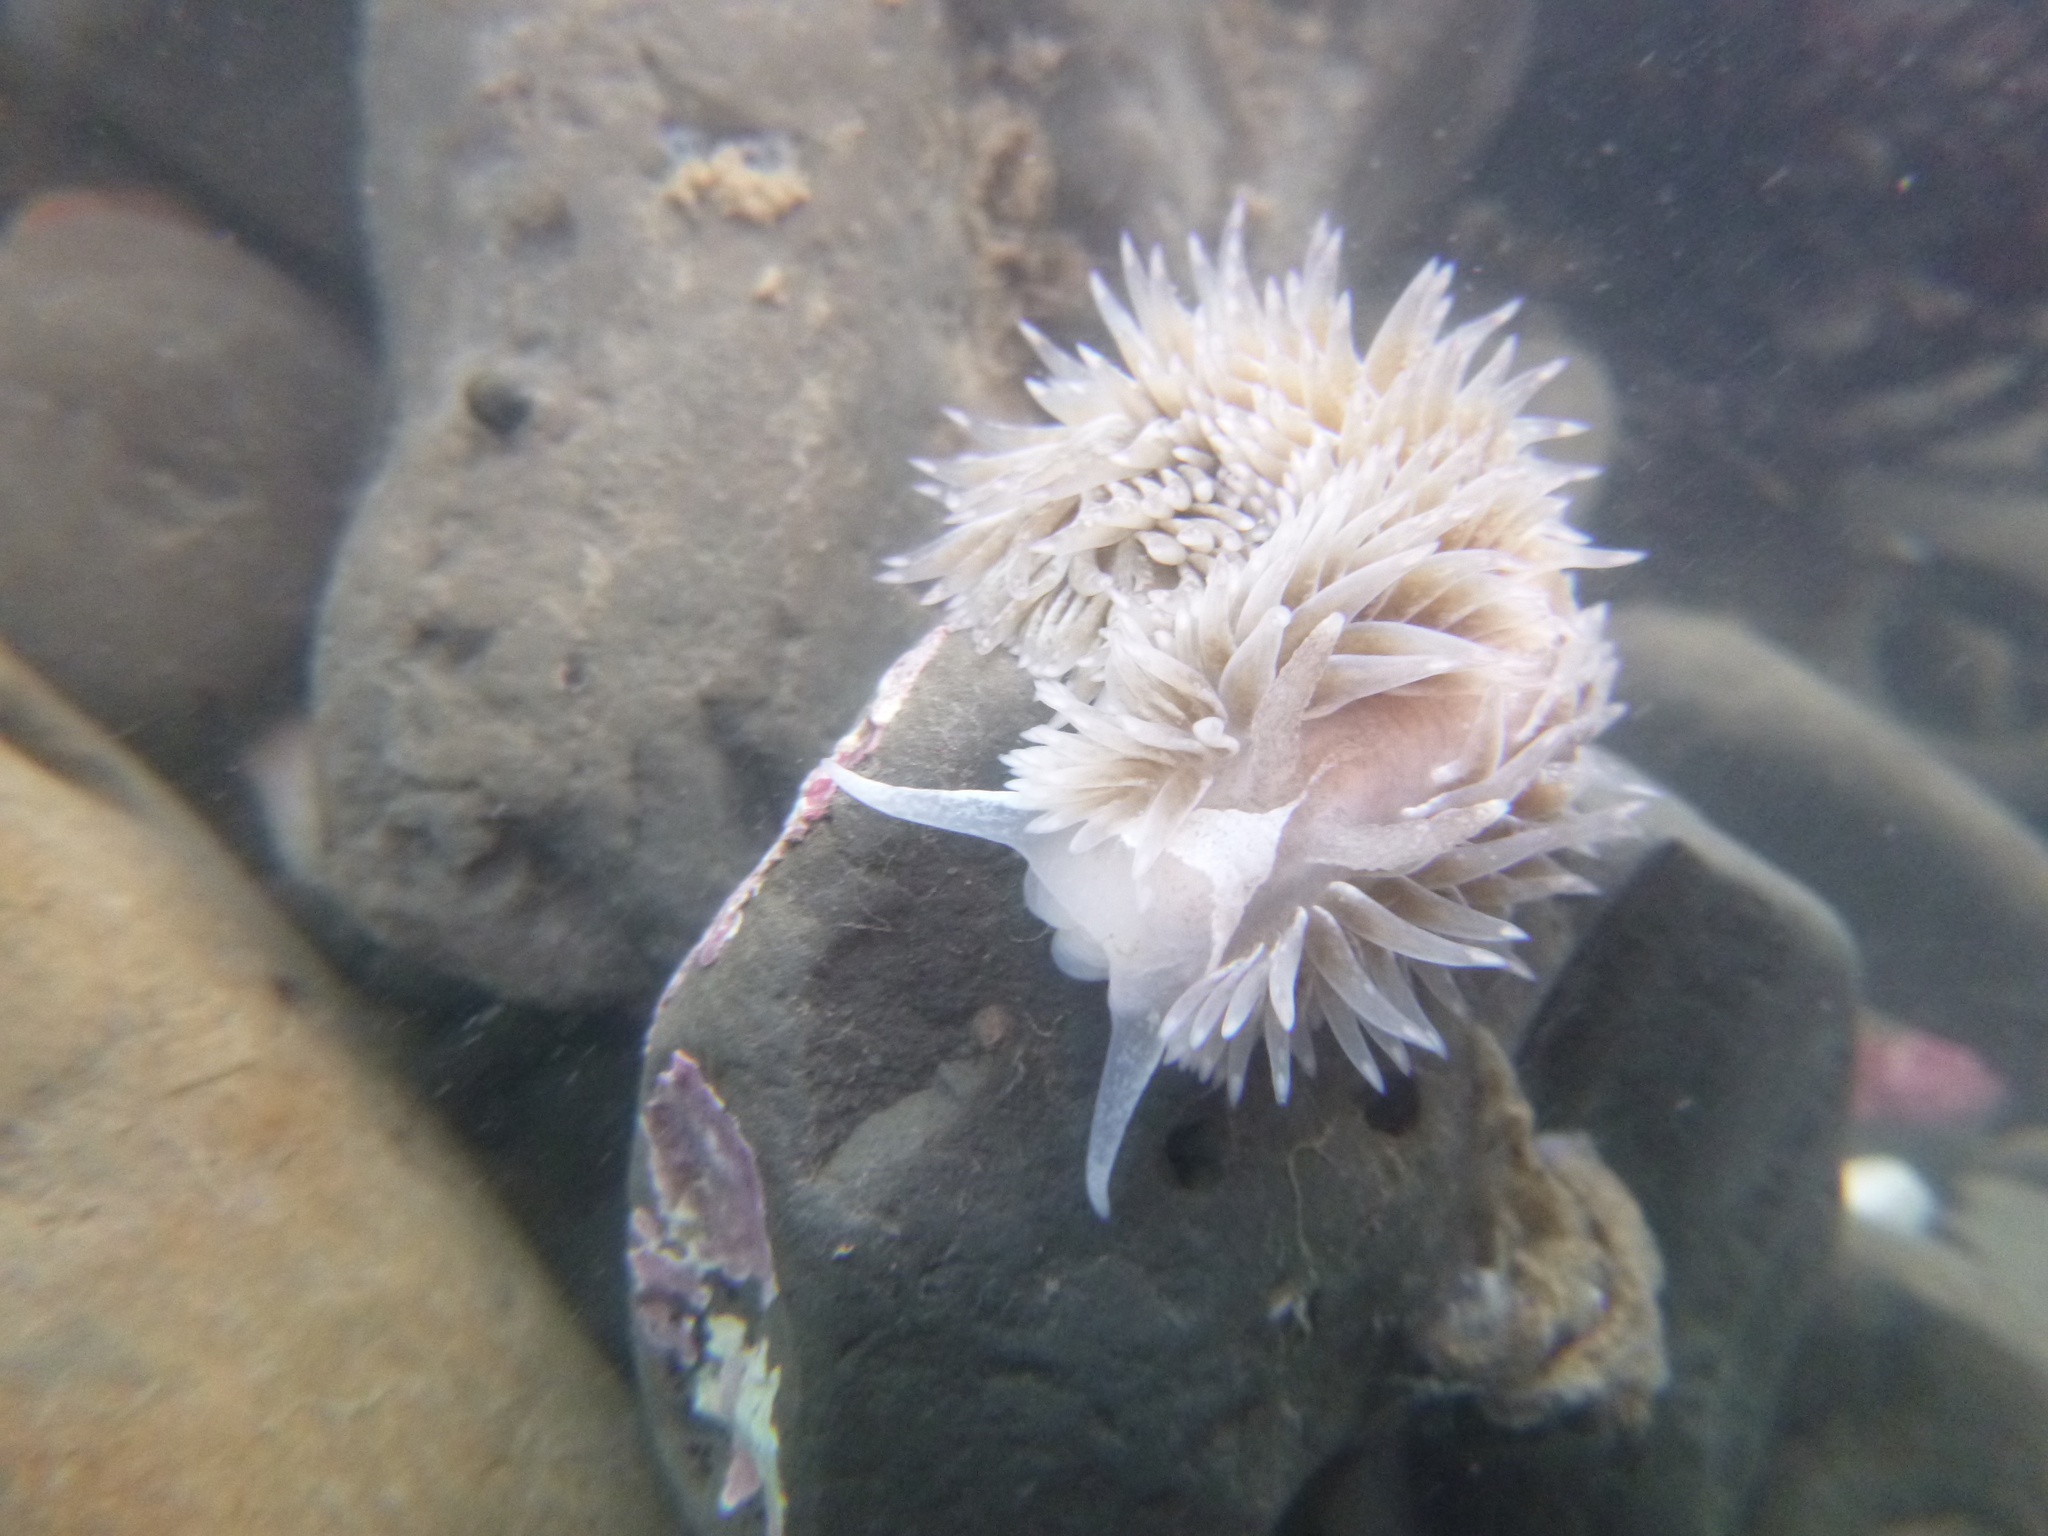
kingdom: Animalia
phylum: Mollusca
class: Gastropoda
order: Nudibranchia
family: Aeolidiidae
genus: Aeolidia
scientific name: Aeolidia loui
